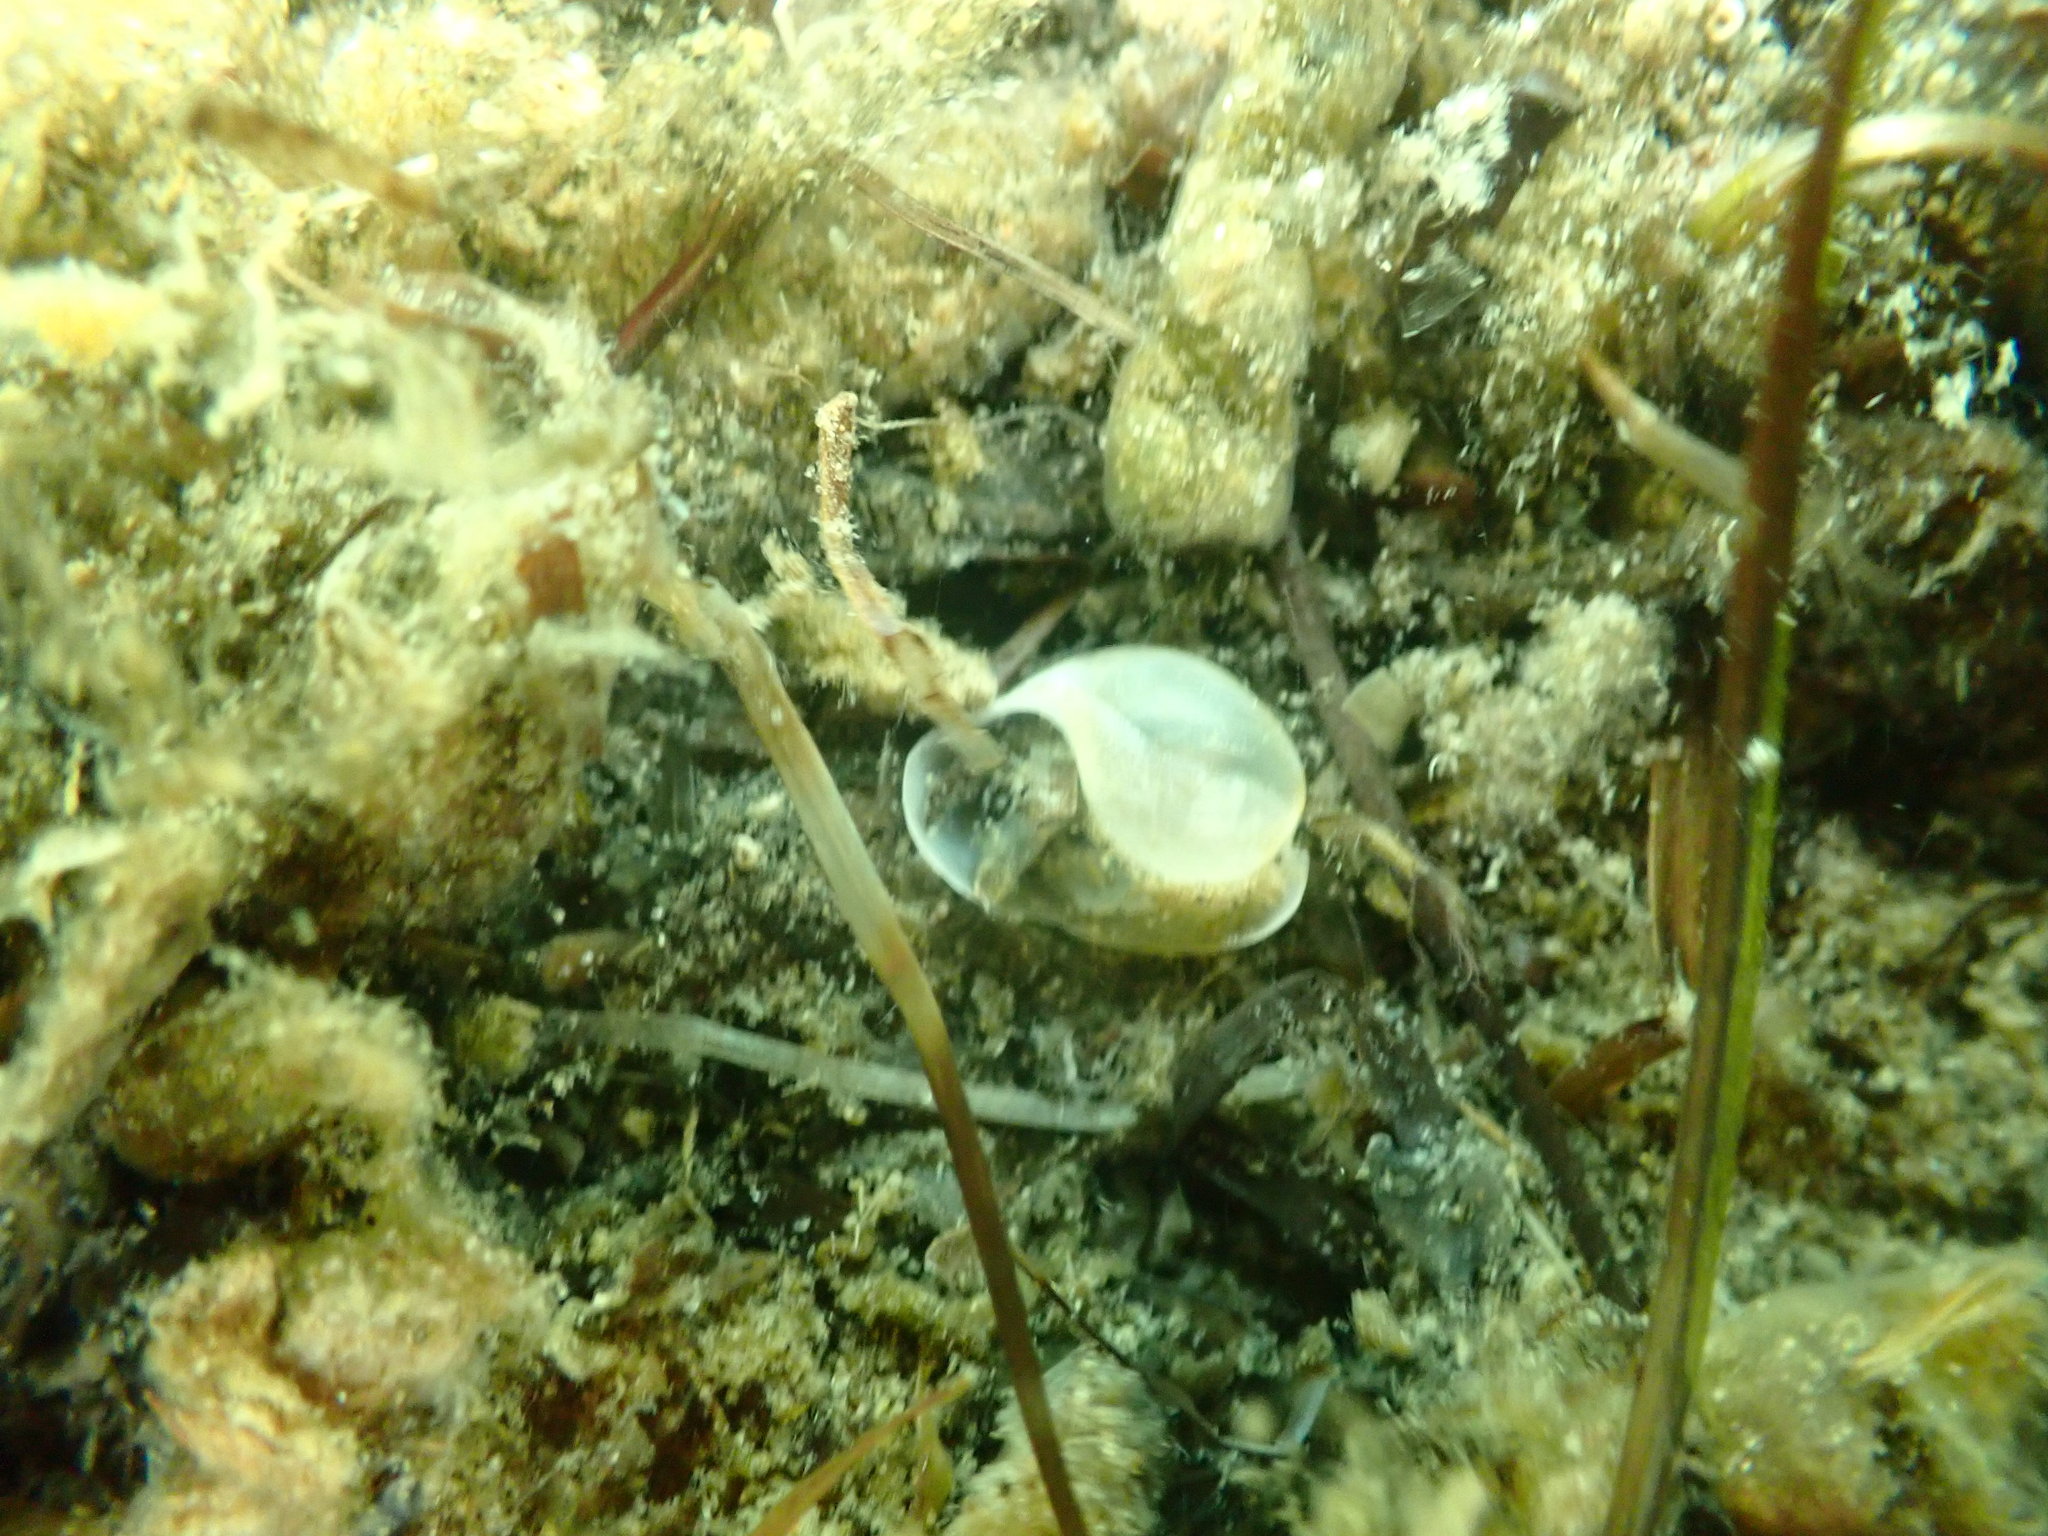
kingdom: Animalia
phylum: Mollusca
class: Gastropoda
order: Cephalaspidea
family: Haminoeidae
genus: Papawera
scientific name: Papawera zelandiae
